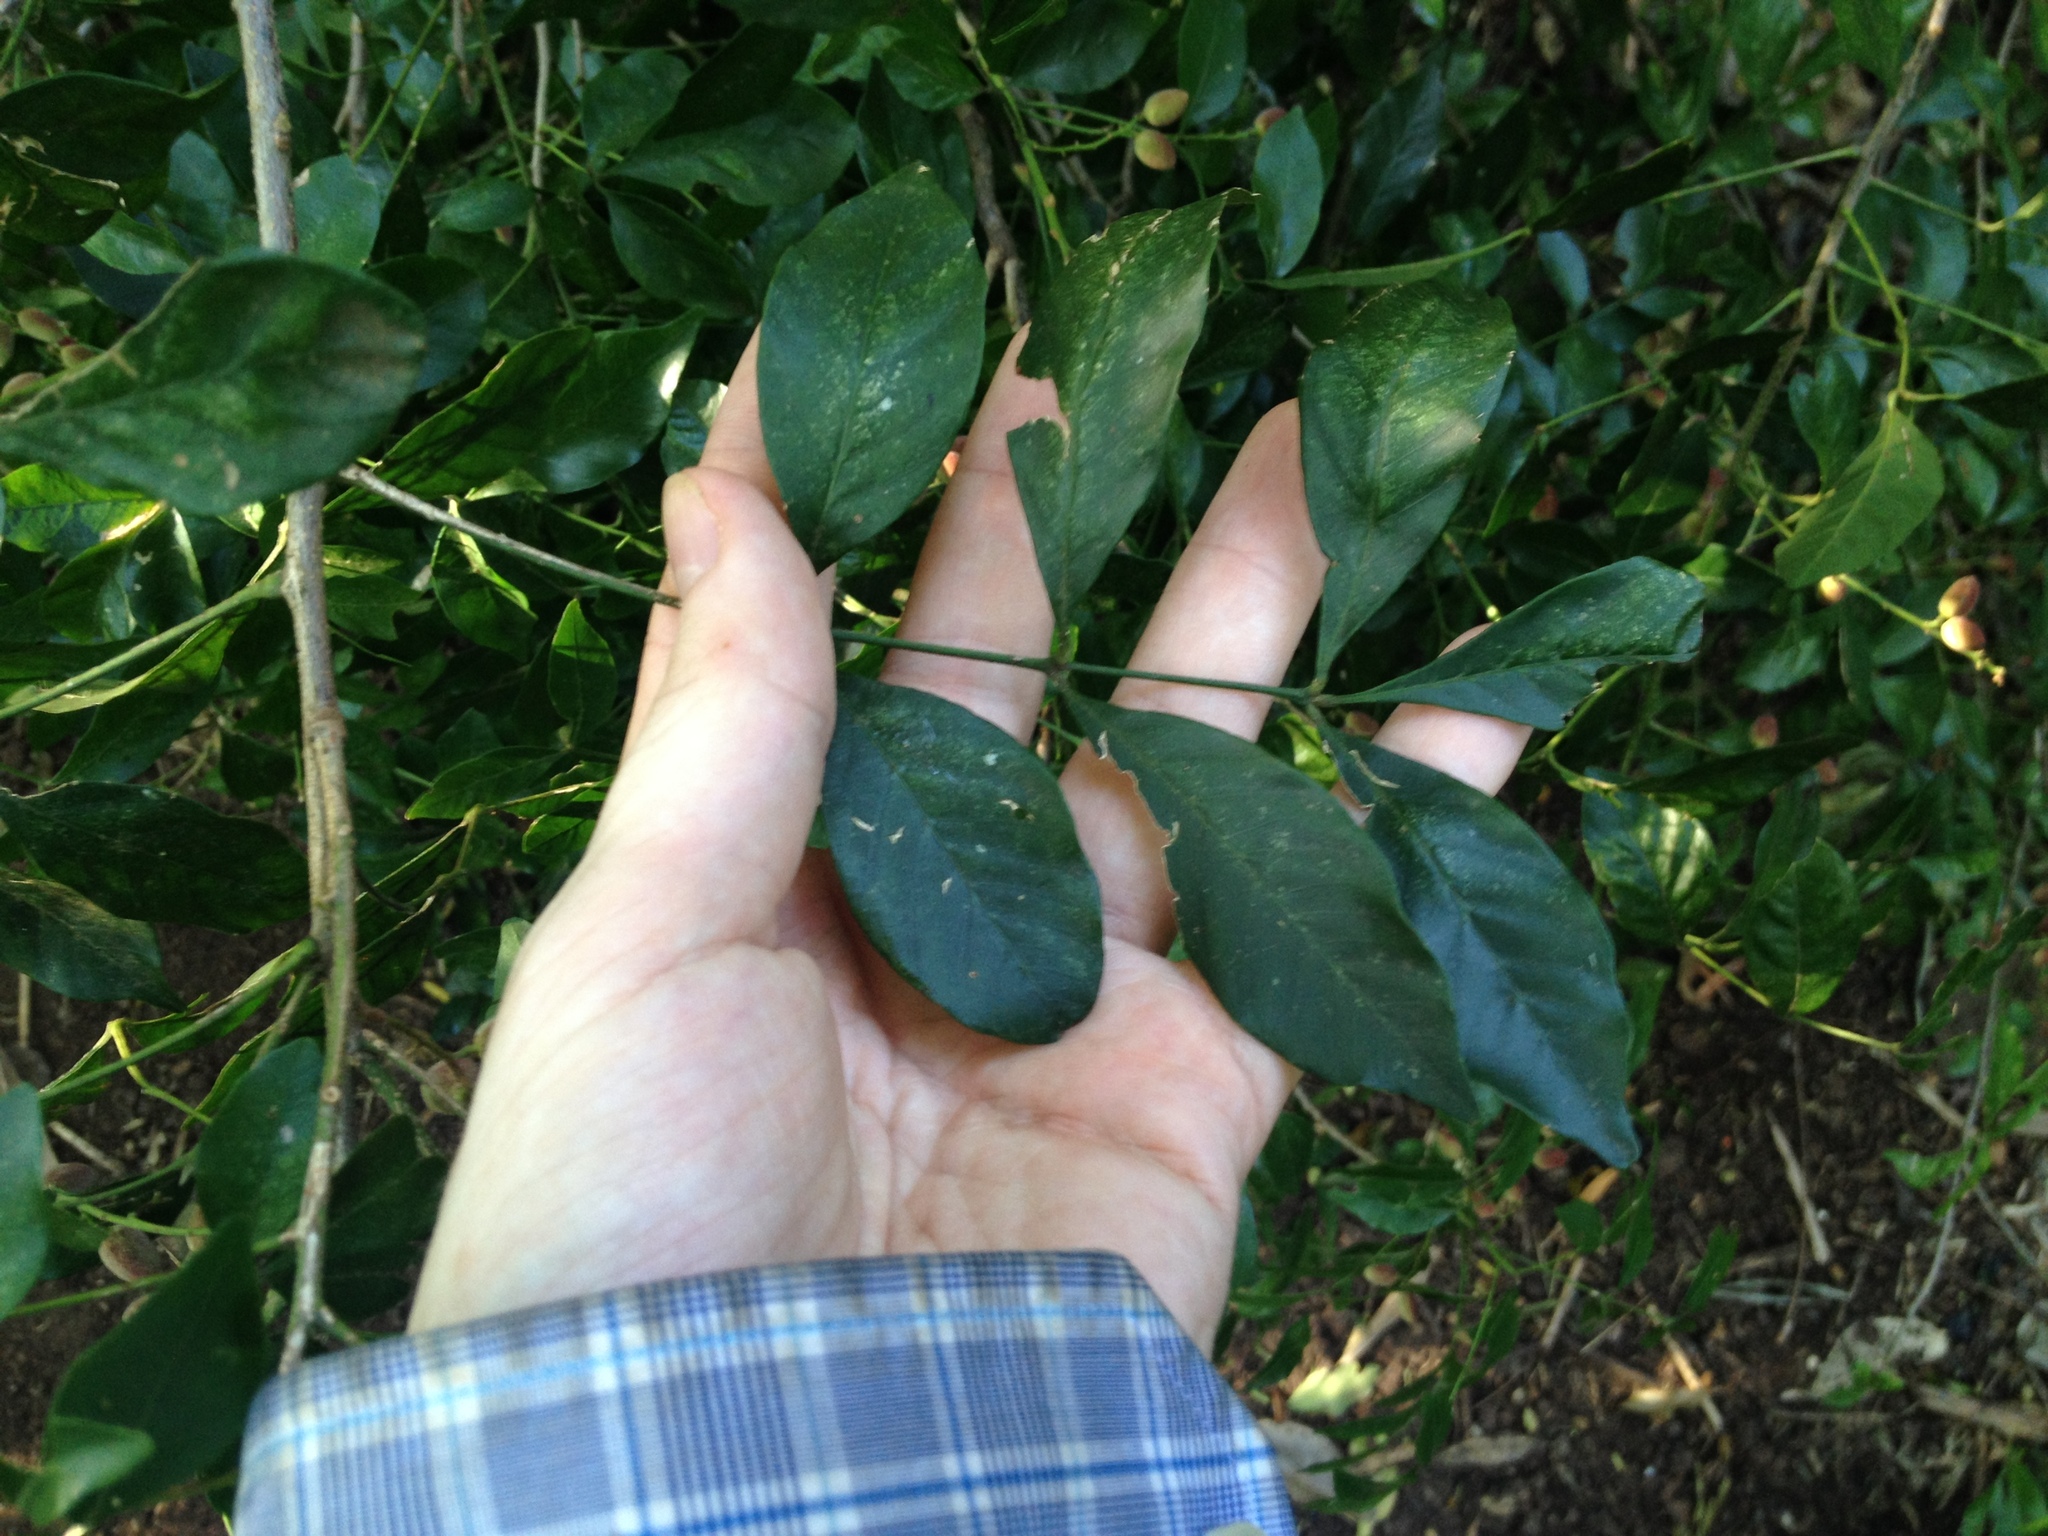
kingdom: Plantae
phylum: Tracheophyta
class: Magnoliopsida
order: Sapindales
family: Meliaceae
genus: Trichilia
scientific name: Trichilia elegans
